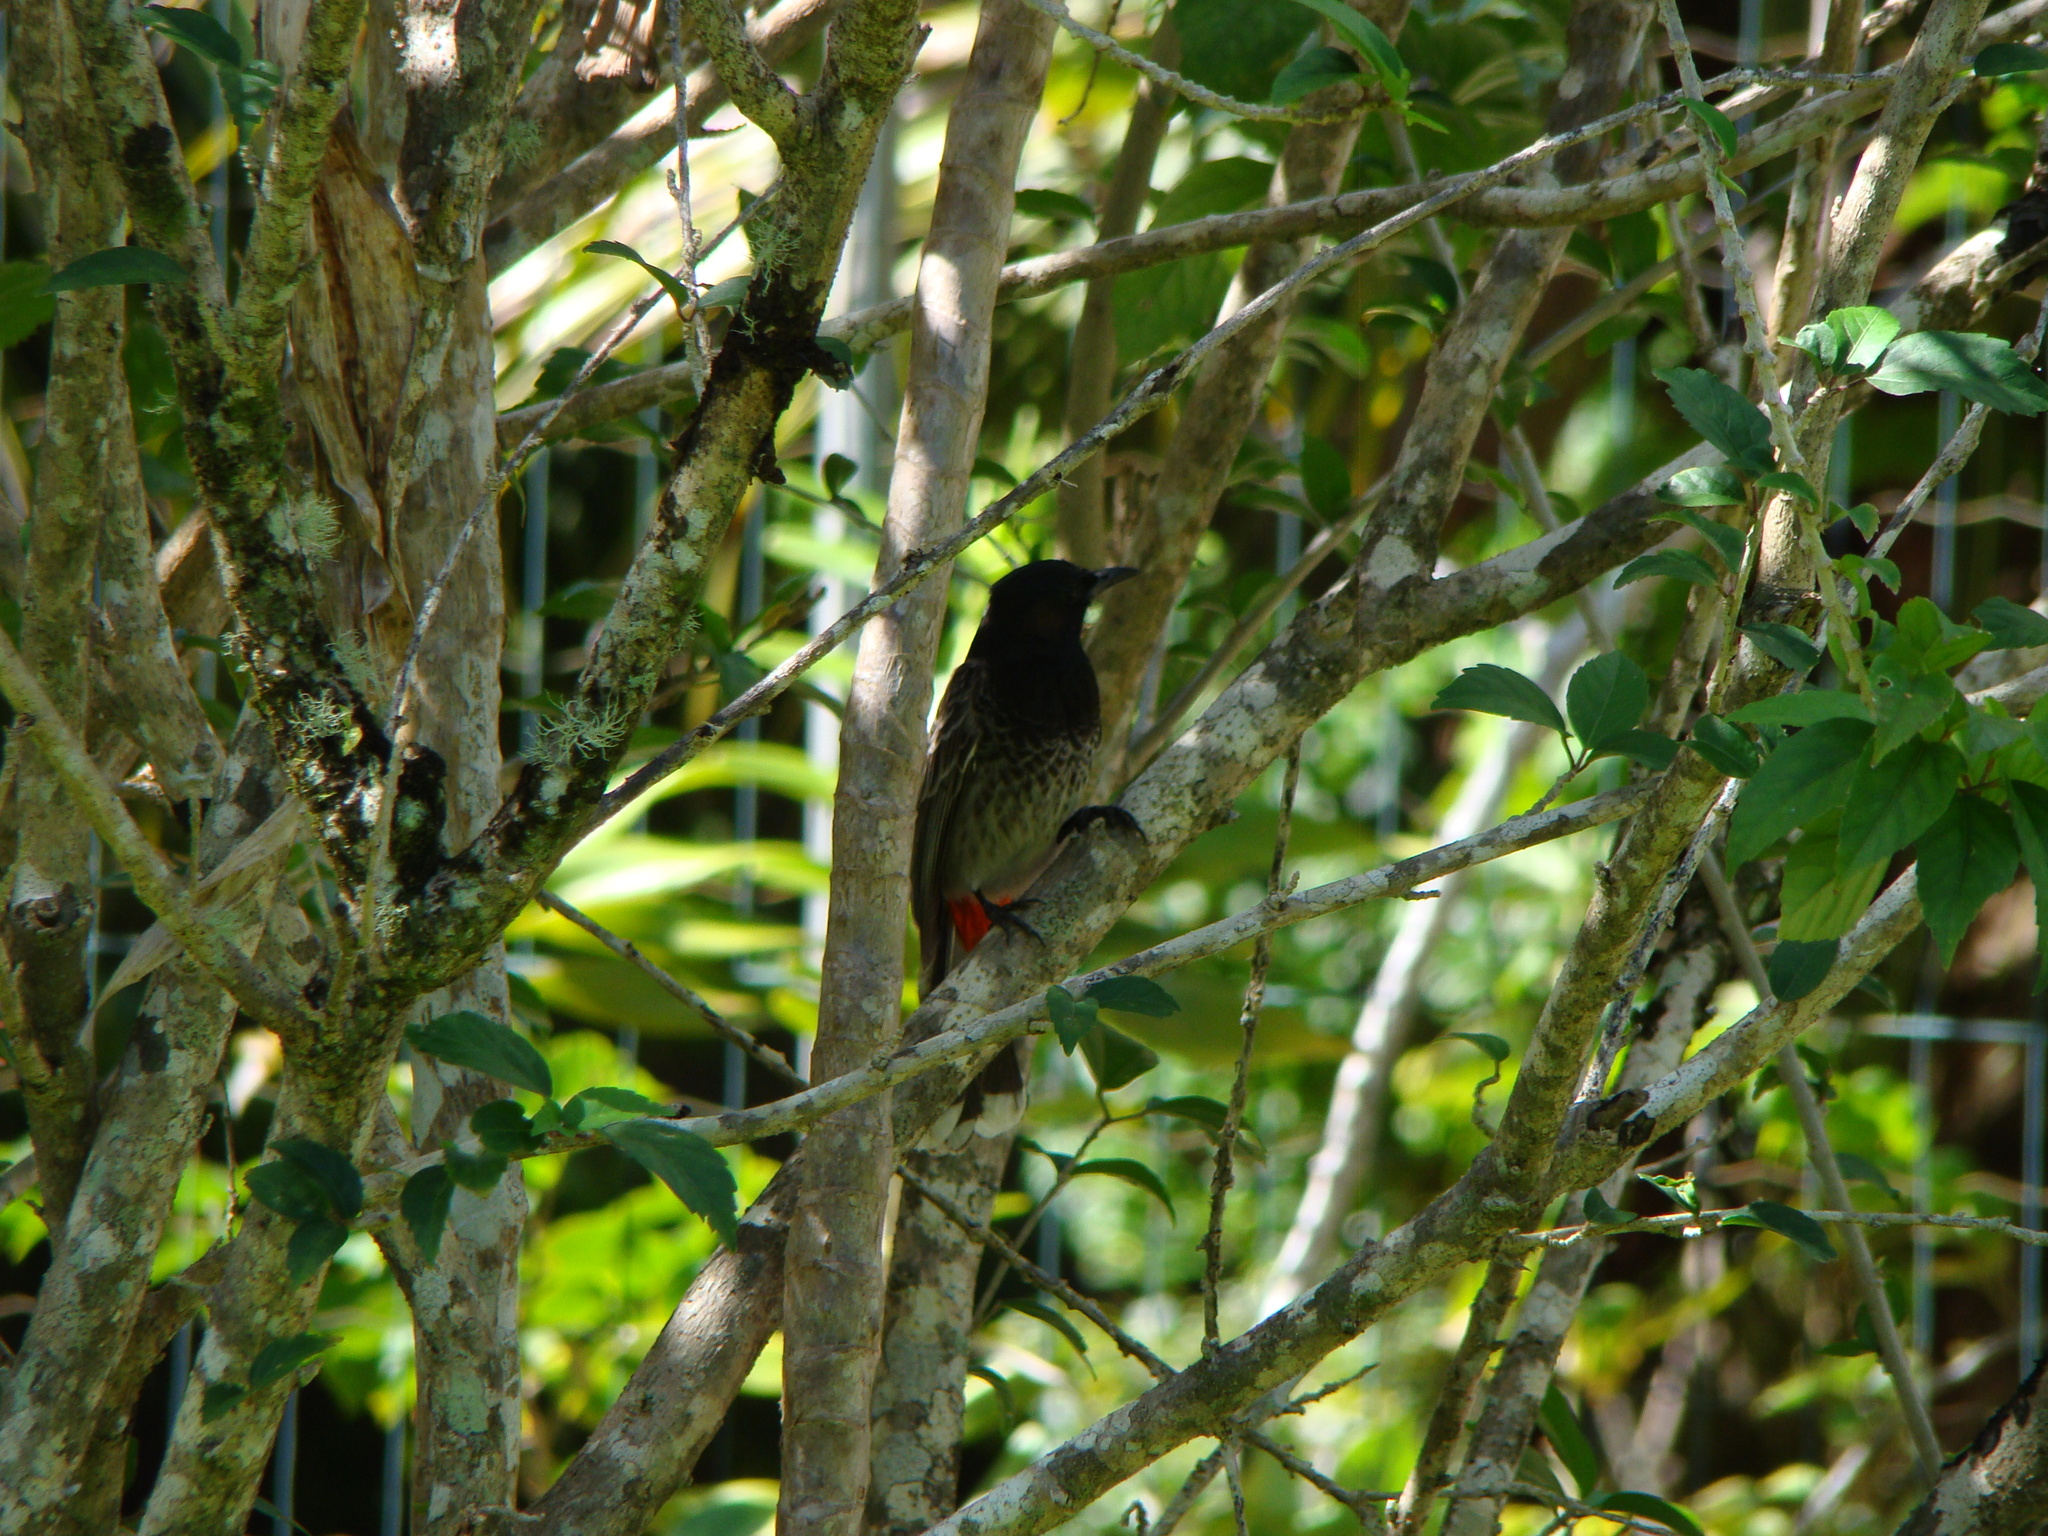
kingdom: Animalia
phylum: Chordata
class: Aves
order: Passeriformes
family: Pycnonotidae
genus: Pycnonotus
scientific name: Pycnonotus cafer
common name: Red-vented bulbul
